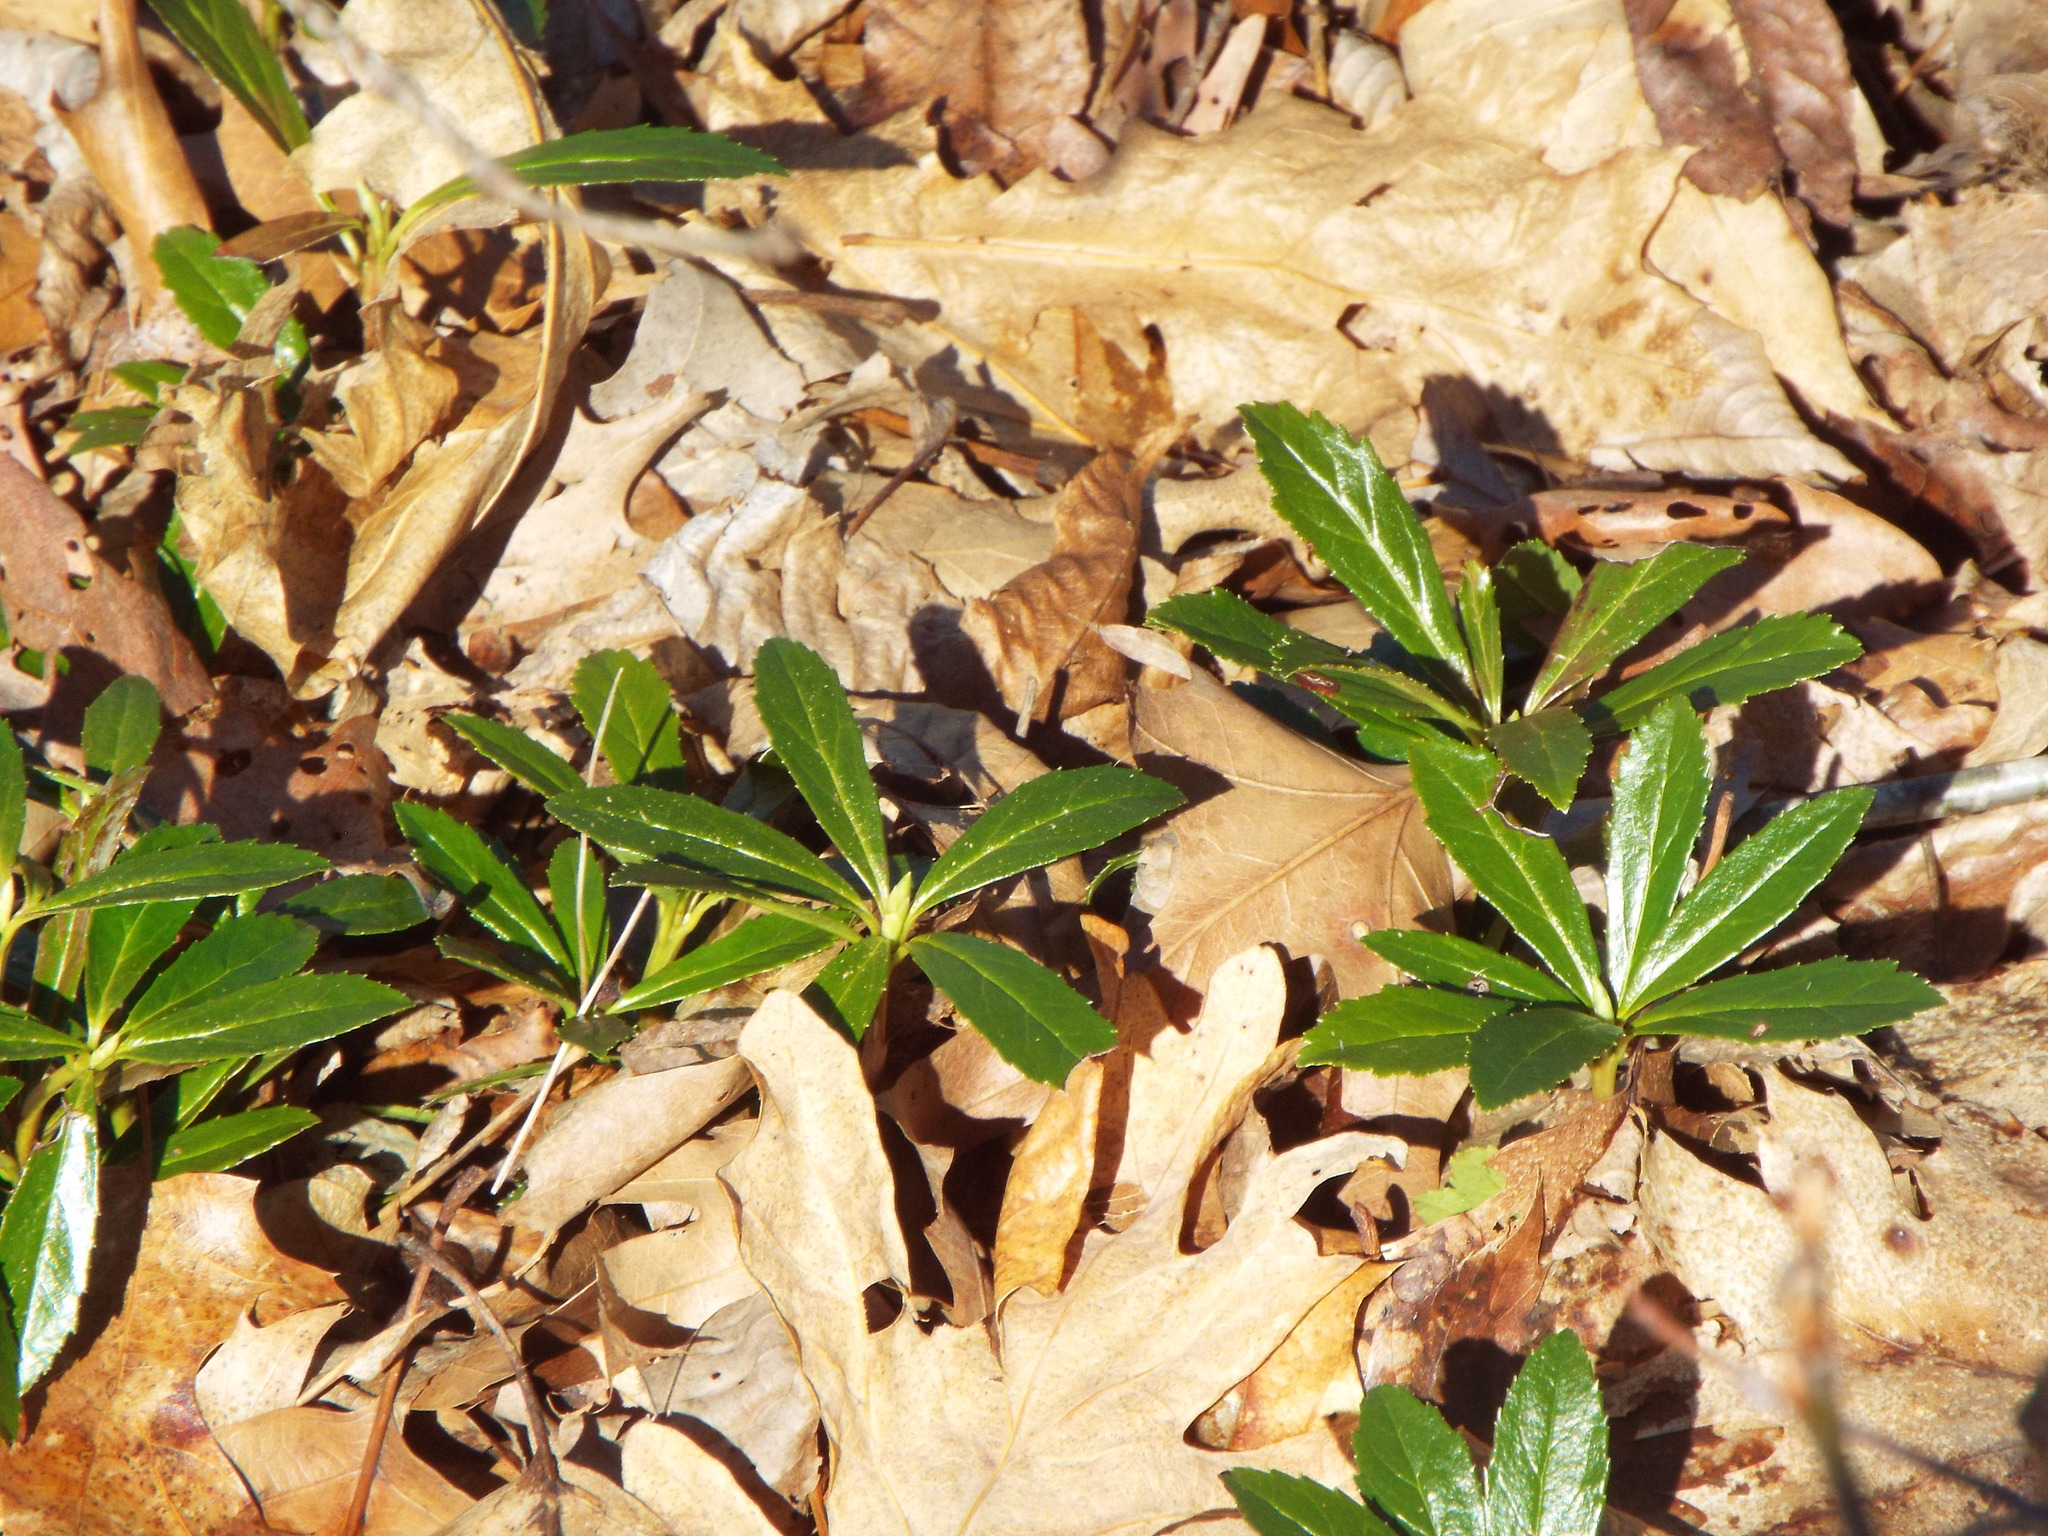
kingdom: Plantae
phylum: Tracheophyta
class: Magnoliopsida
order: Ericales
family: Ericaceae
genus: Chimaphila
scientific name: Chimaphila umbellata
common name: Pipsissewa
